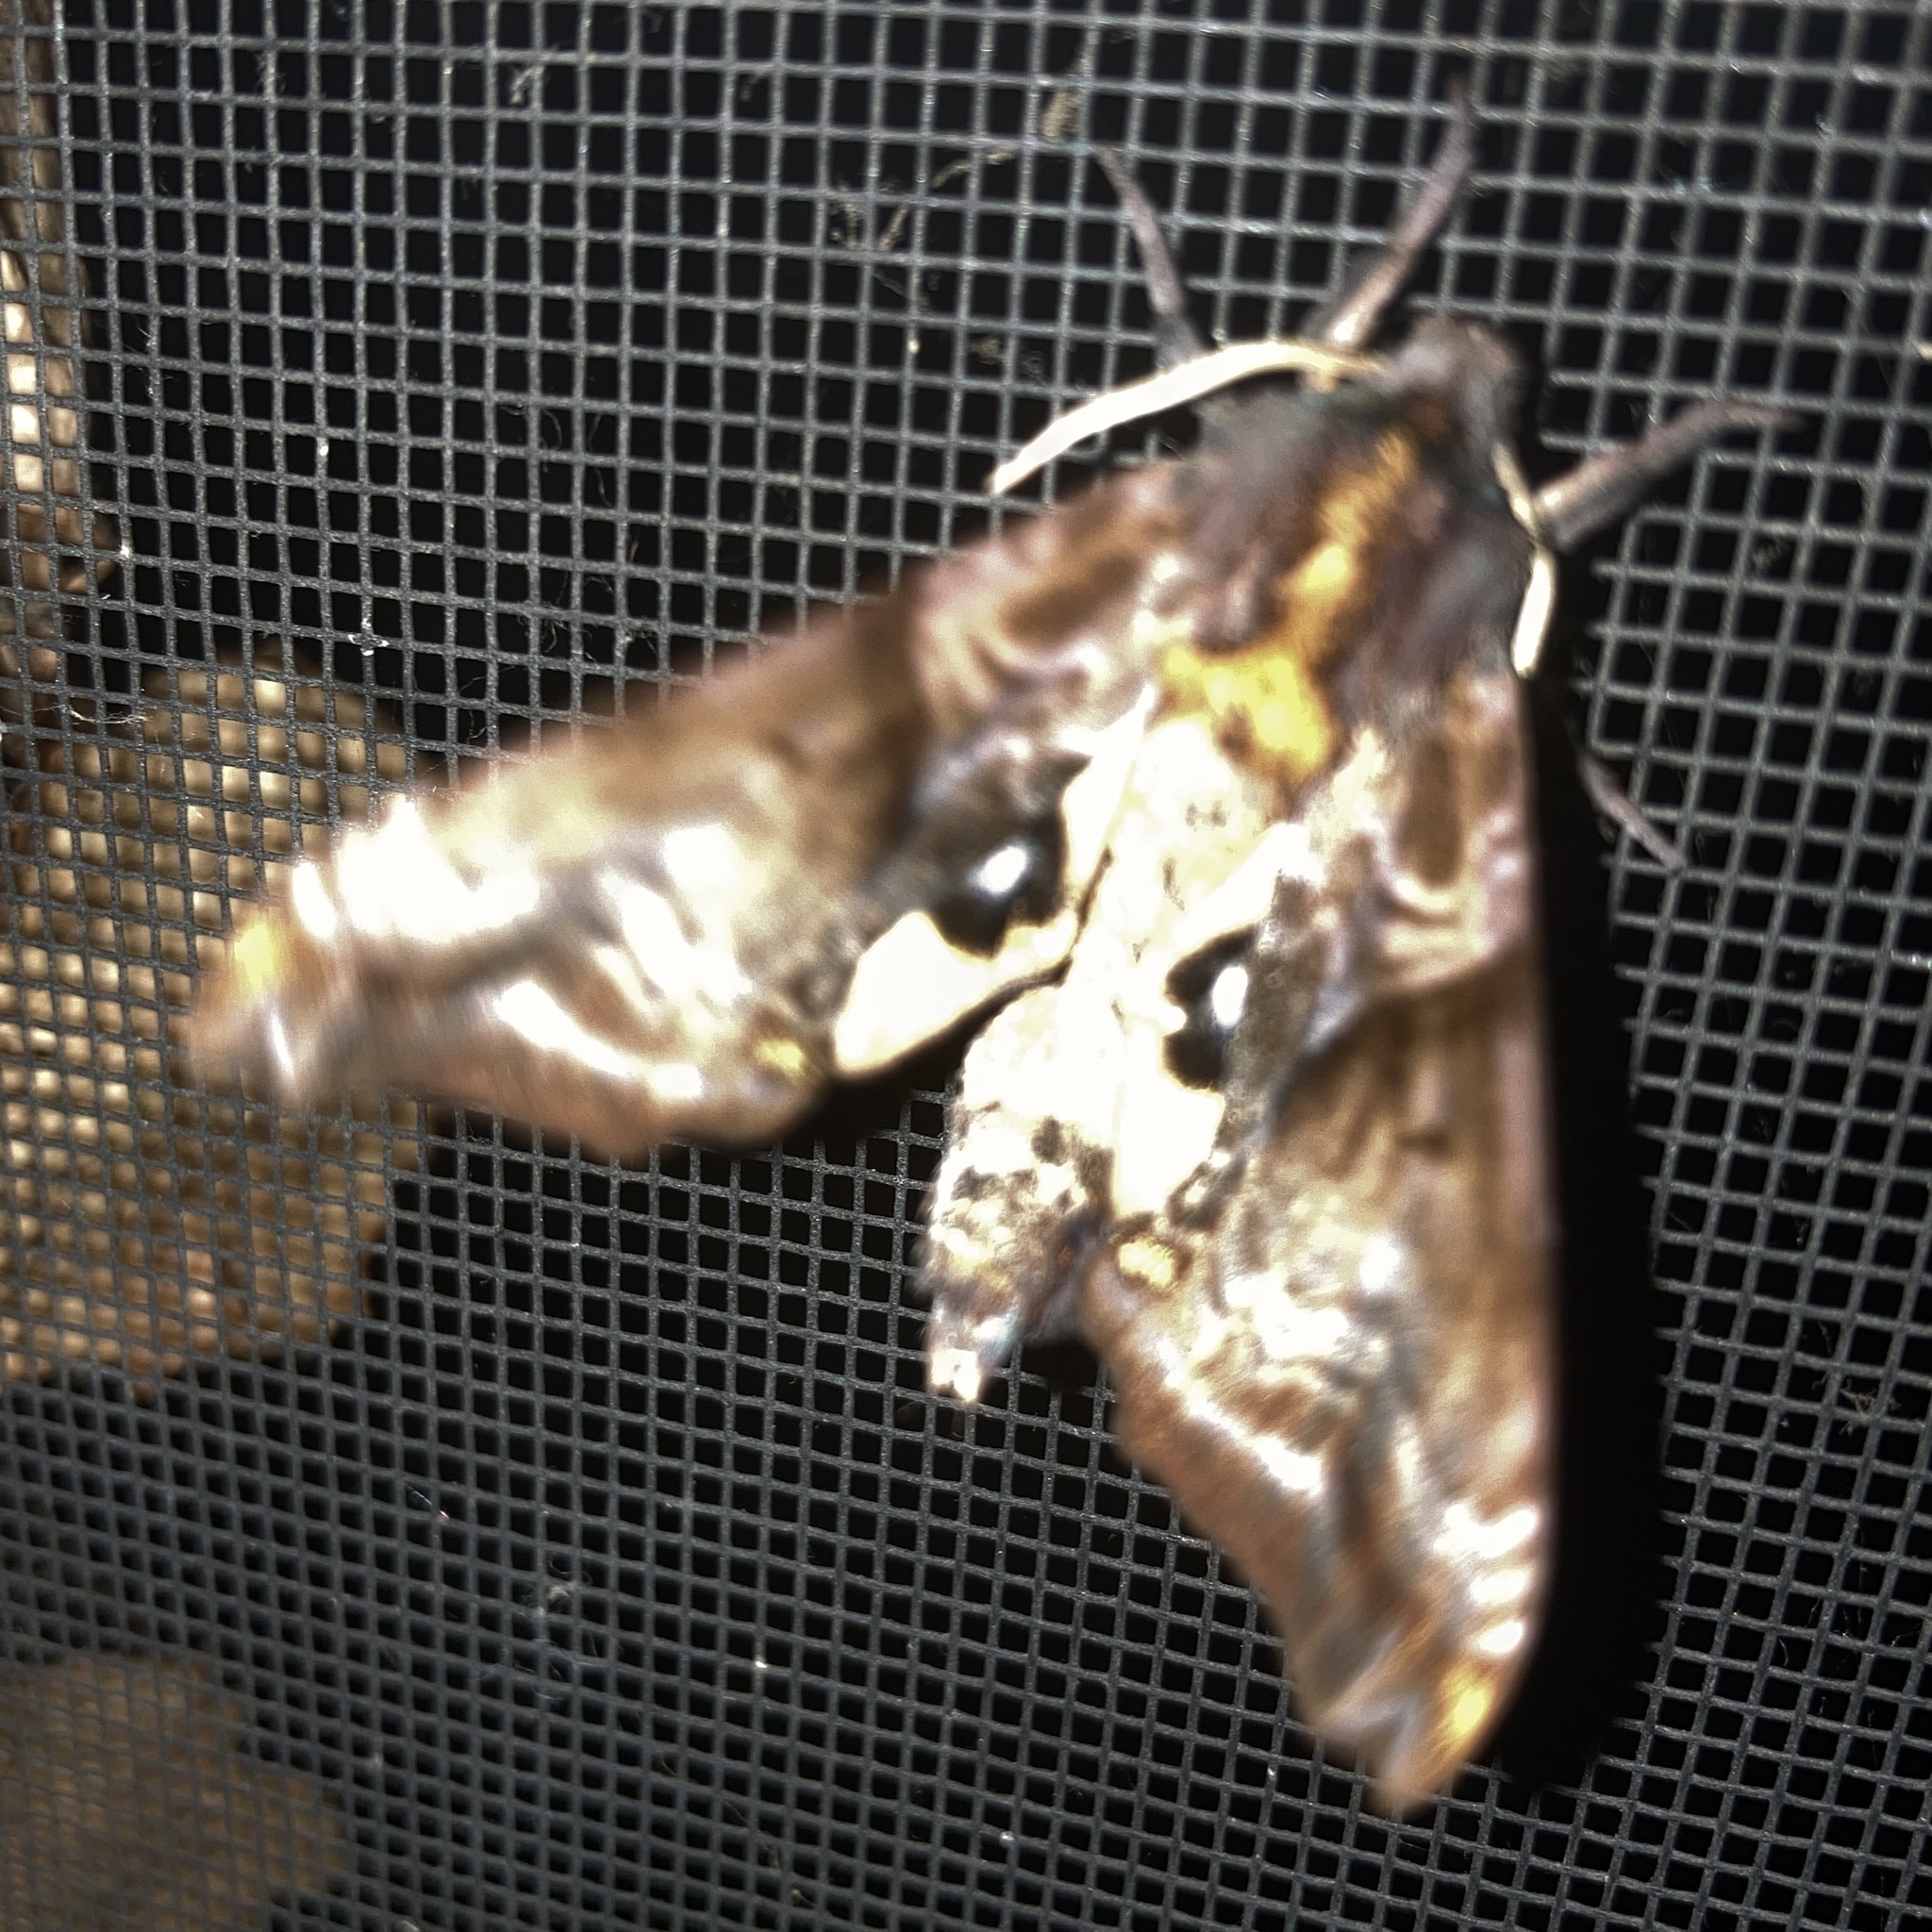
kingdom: Animalia
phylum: Arthropoda
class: Insecta
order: Lepidoptera
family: Sphingidae
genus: Paonias
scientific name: Paonias myops
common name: Small-eyed sphinx
